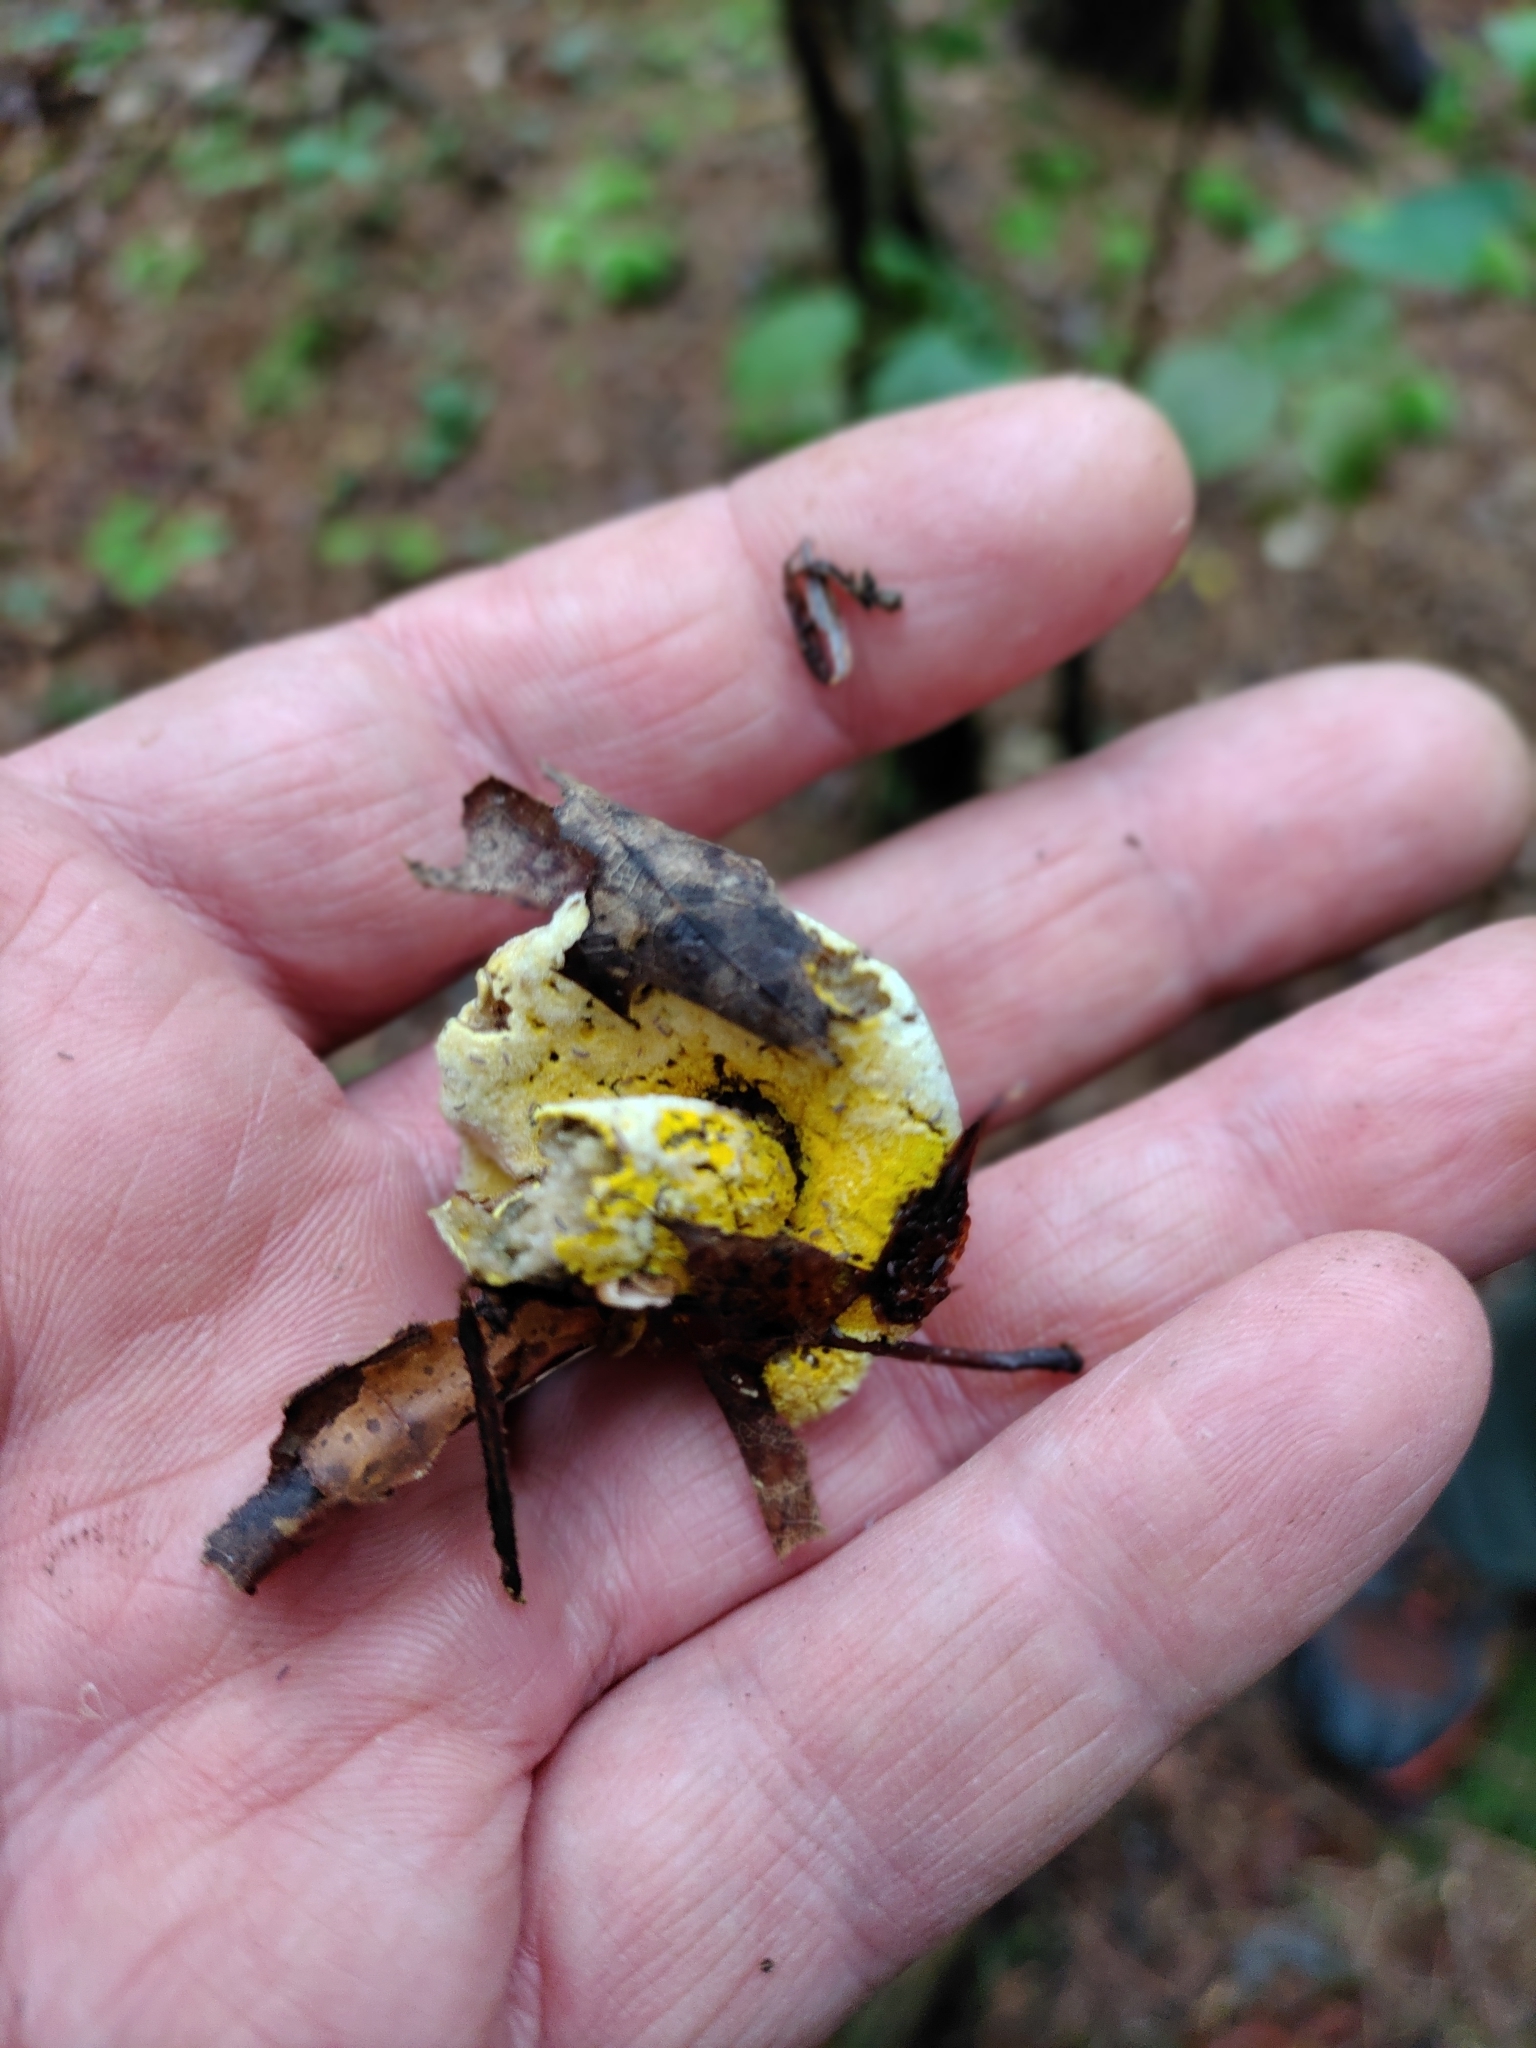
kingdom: Fungi
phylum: Ascomycota
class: Sordariomycetes
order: Hypocreales
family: Hypocreaceae
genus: Hypomyces
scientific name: Hypomyces chrysospermus
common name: Bolete mould
